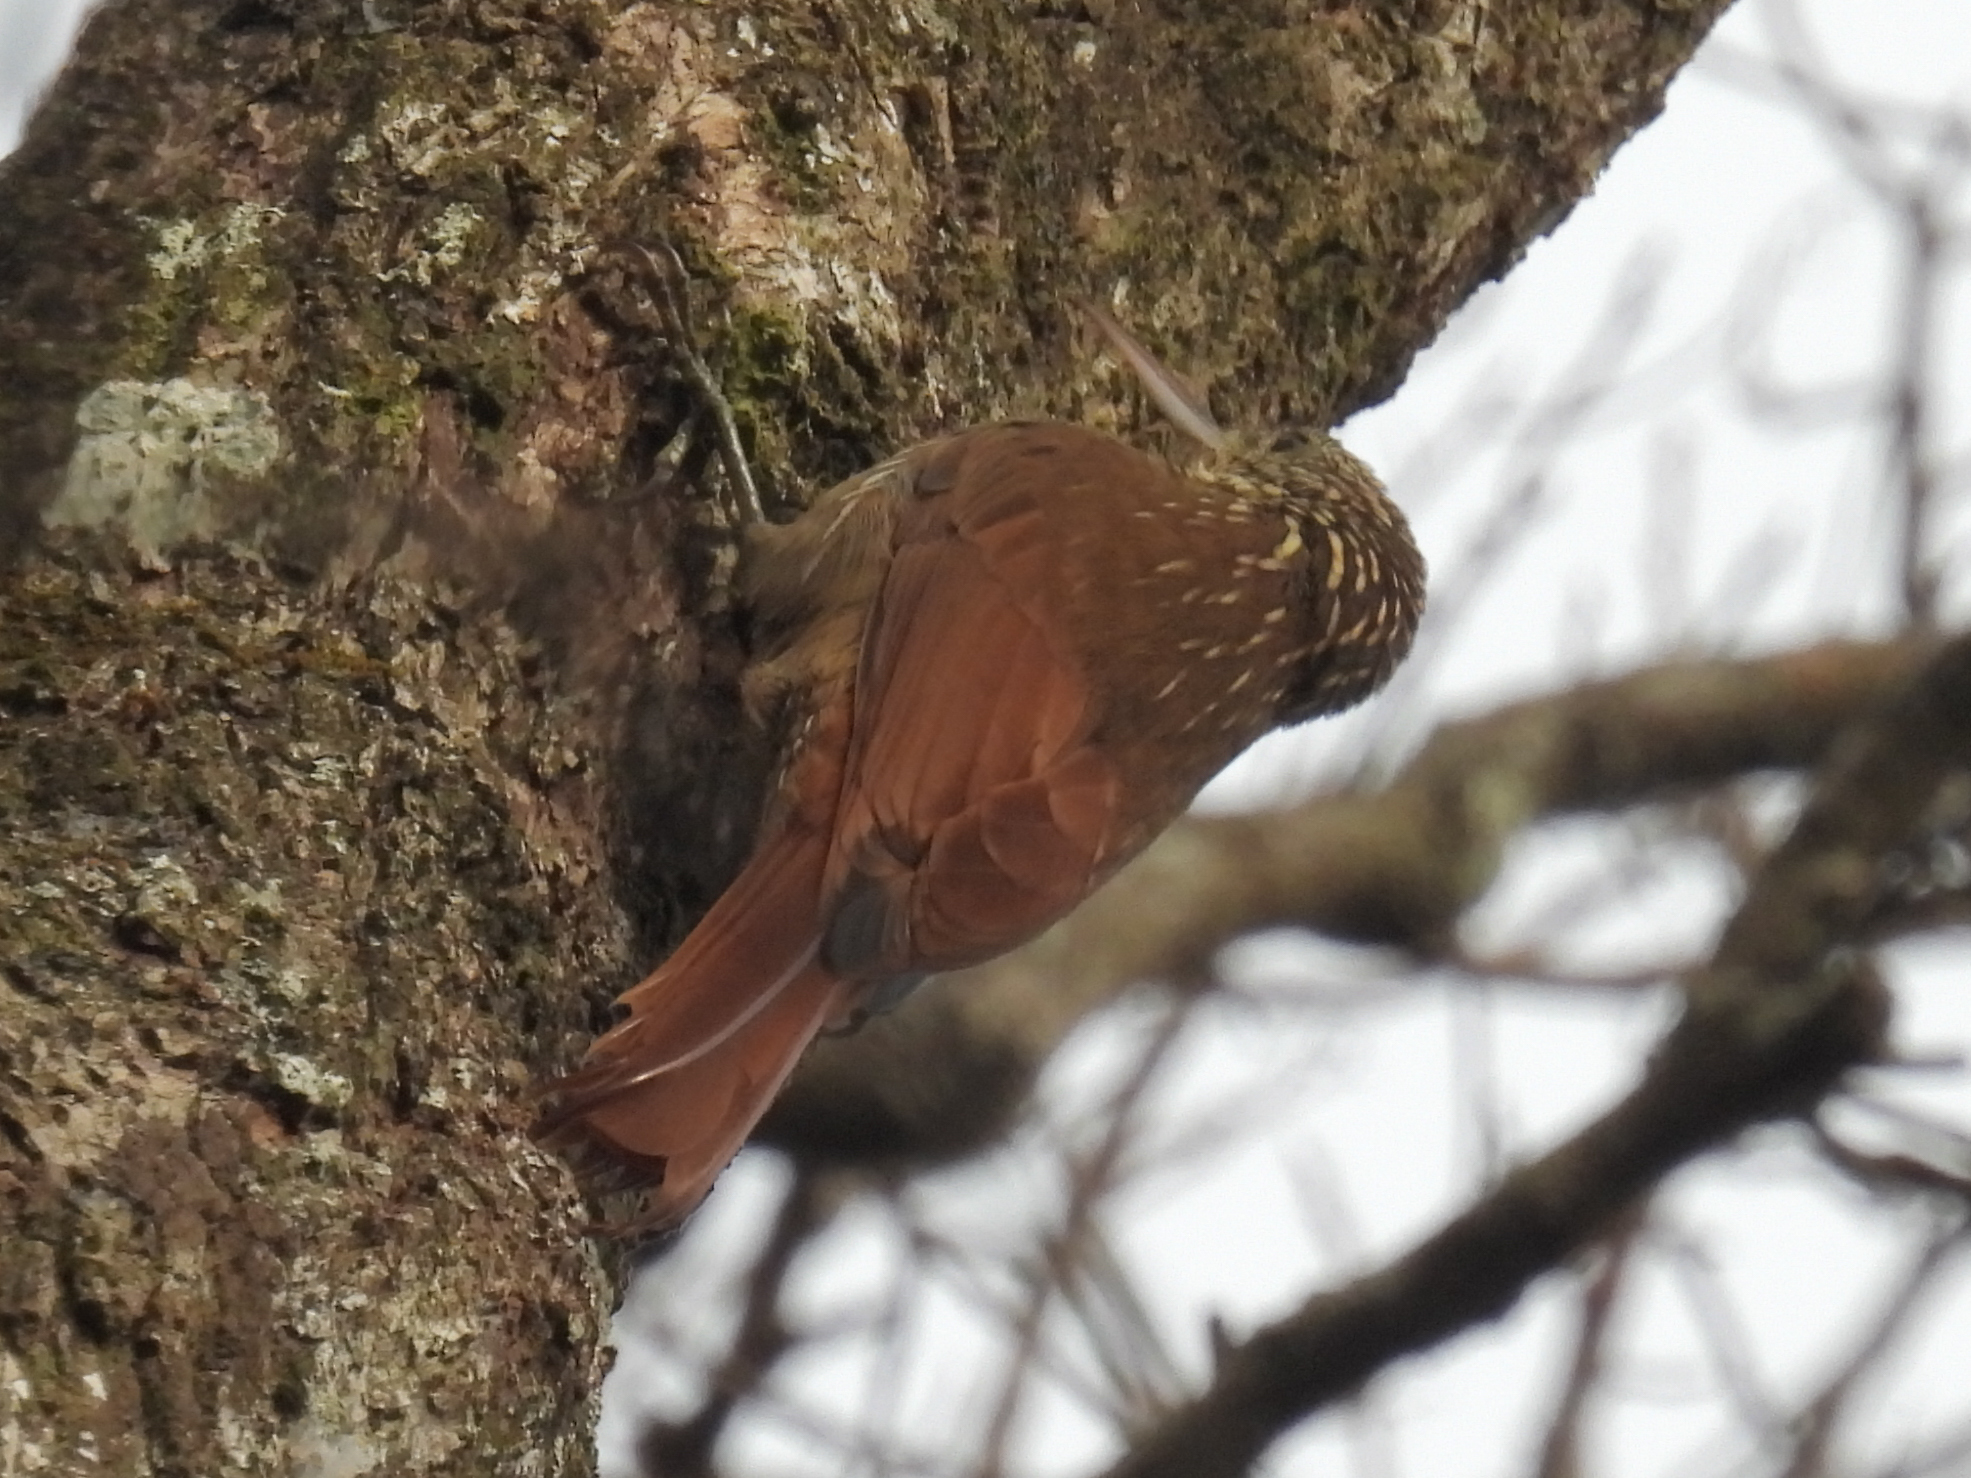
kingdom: Animalia
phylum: Chordata
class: Aves
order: Passeriformes
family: Furnariidae
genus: Lepidocolaptes
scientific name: Lepidocolaptes souleyetii
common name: Streak-headed woodcreeper
